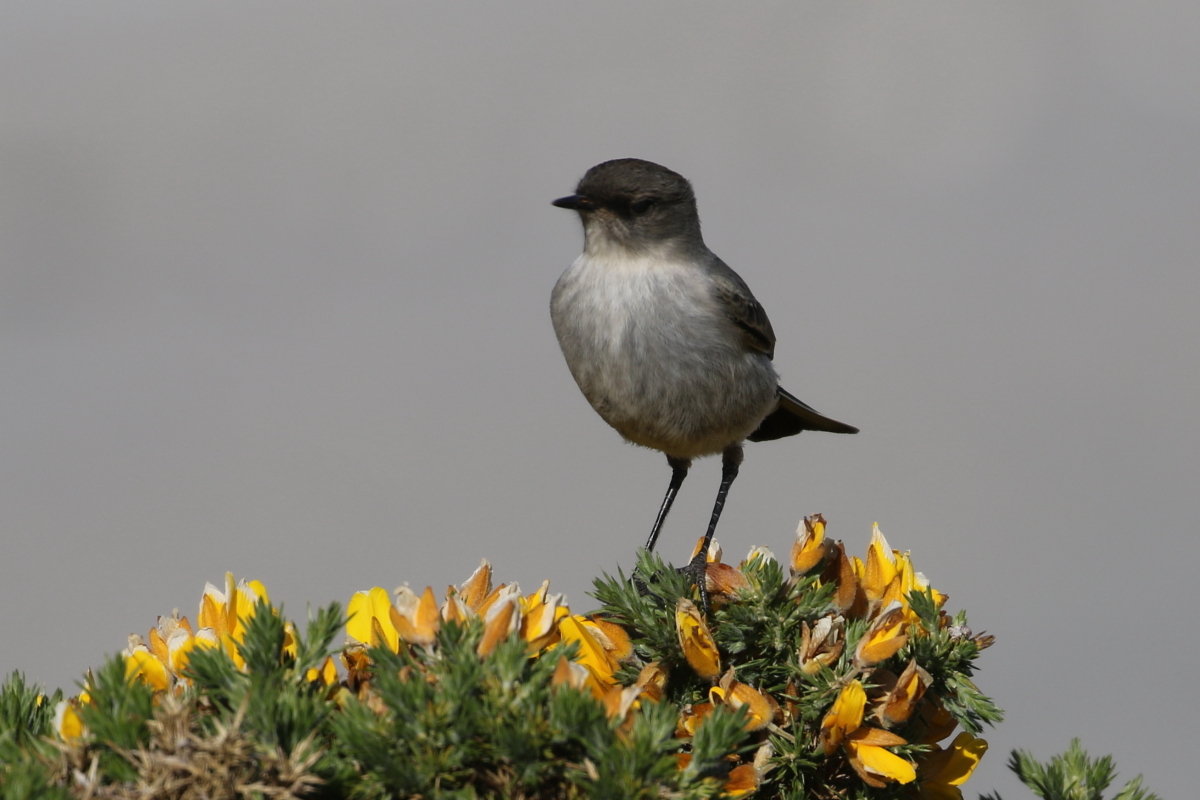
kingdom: Animalia
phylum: Chordata
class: Aves
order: Passeriformes
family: Tyrannidae
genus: Muscisaxicola
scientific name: Muscisaxicola maclovianus
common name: Dark-faced ground tyrant
